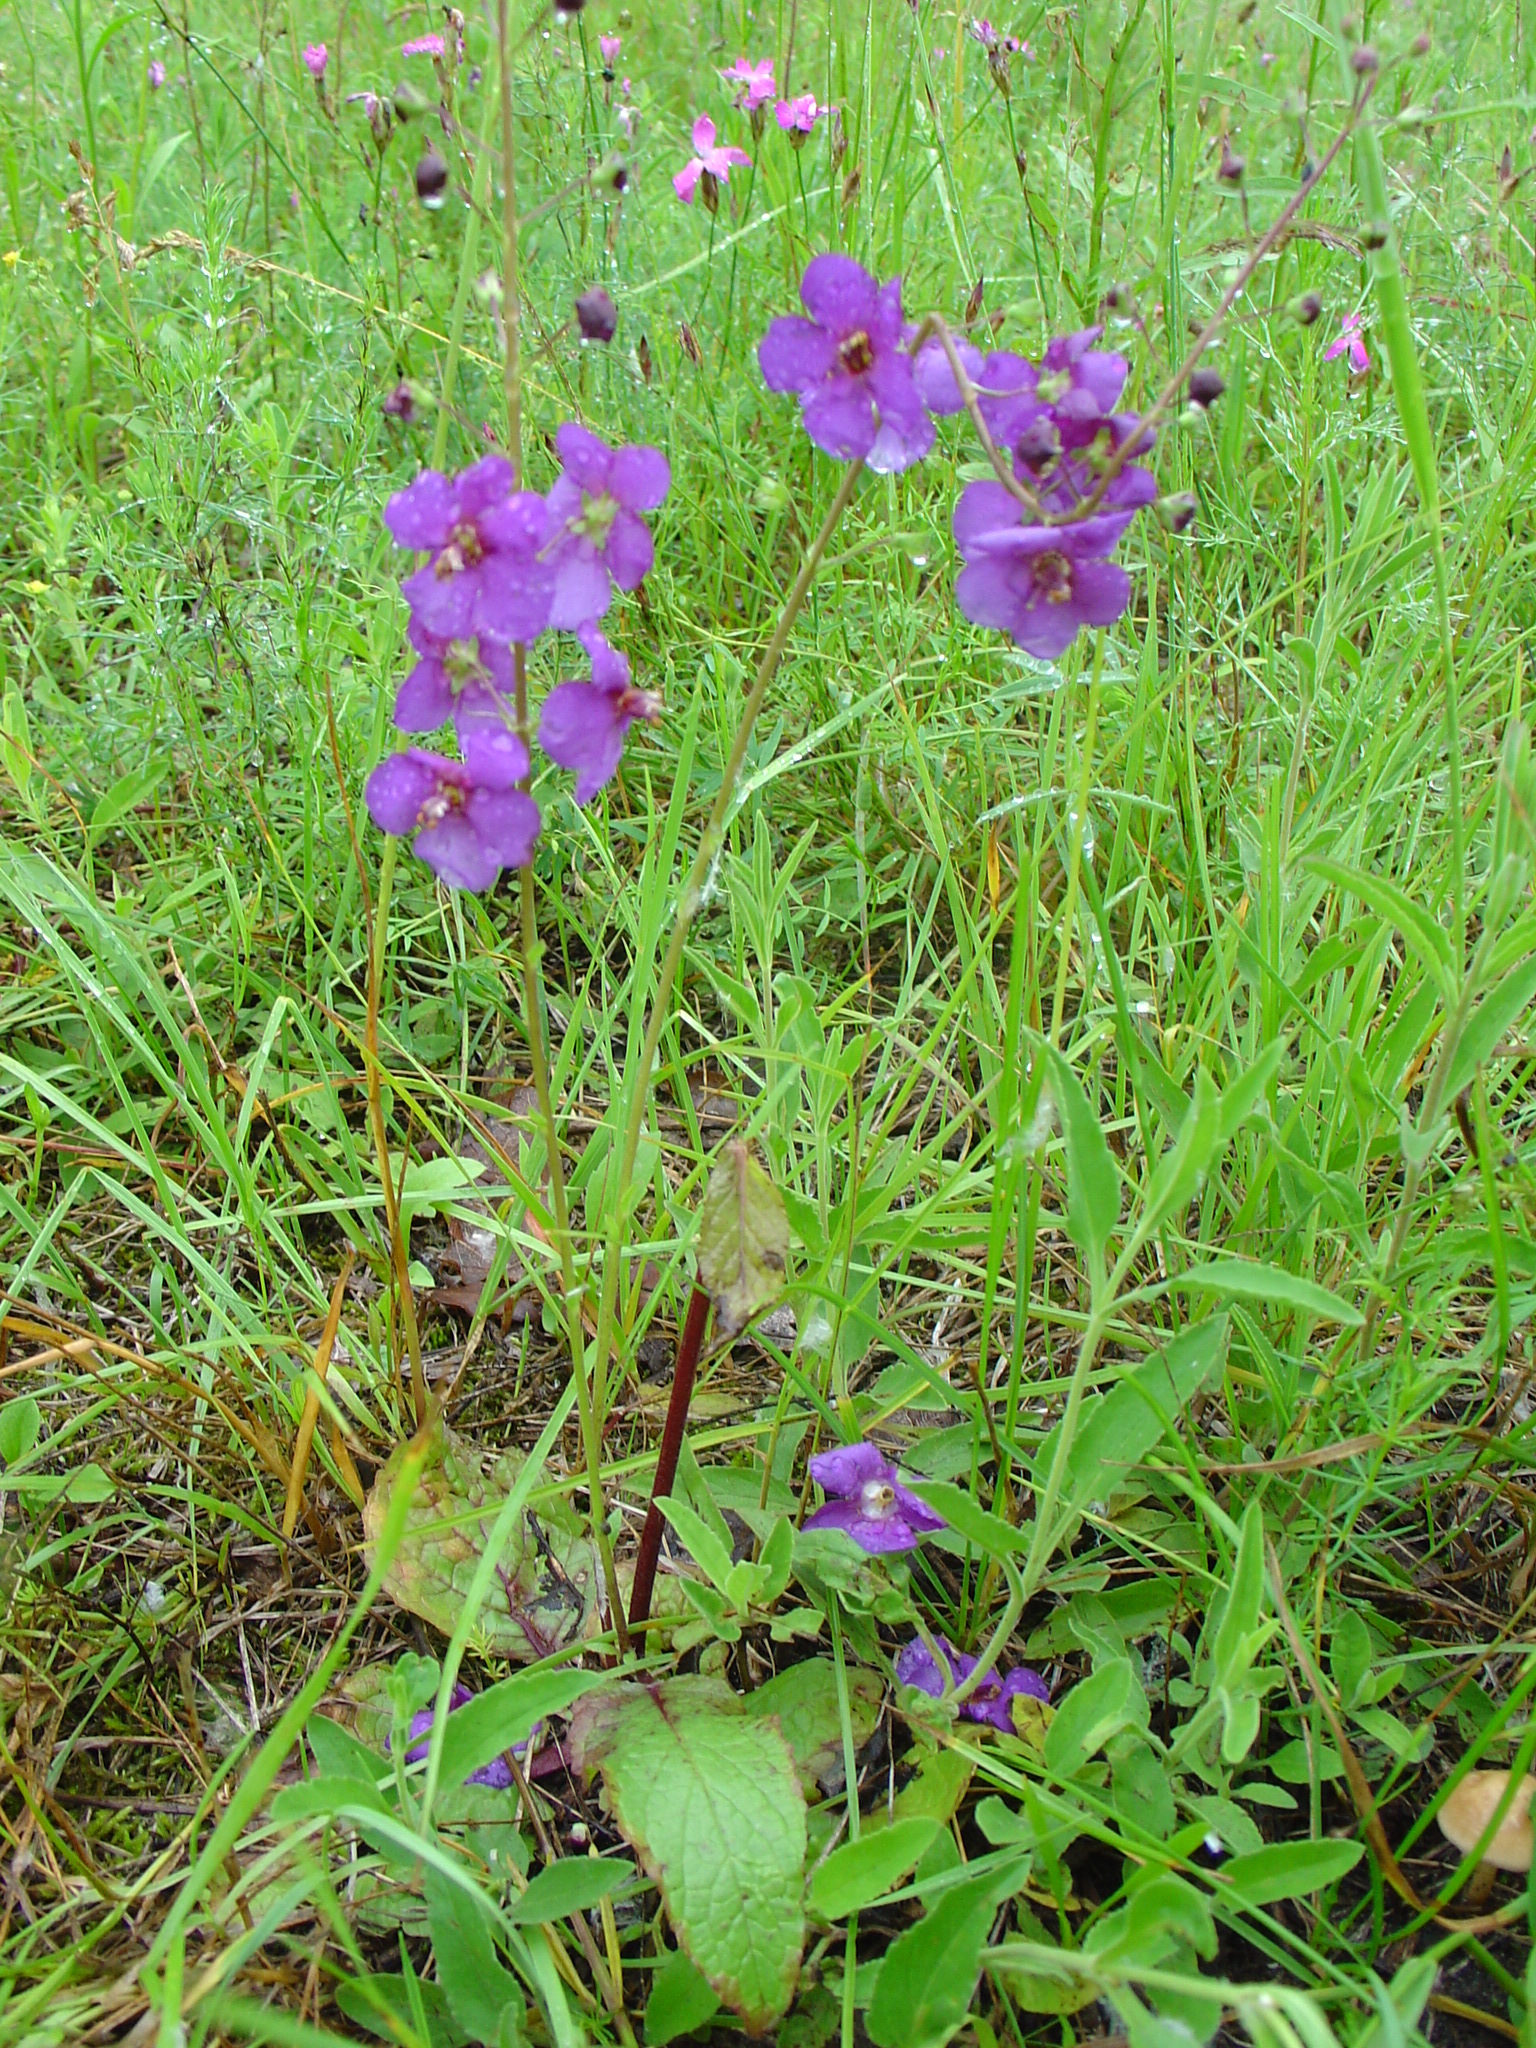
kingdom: Plantae
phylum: Tracheophyta
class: Magnoliopsida
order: Lamiales
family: Scrophulariaceae
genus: Verbascum
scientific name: Verbascum phoeniceum
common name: Purple mullein
